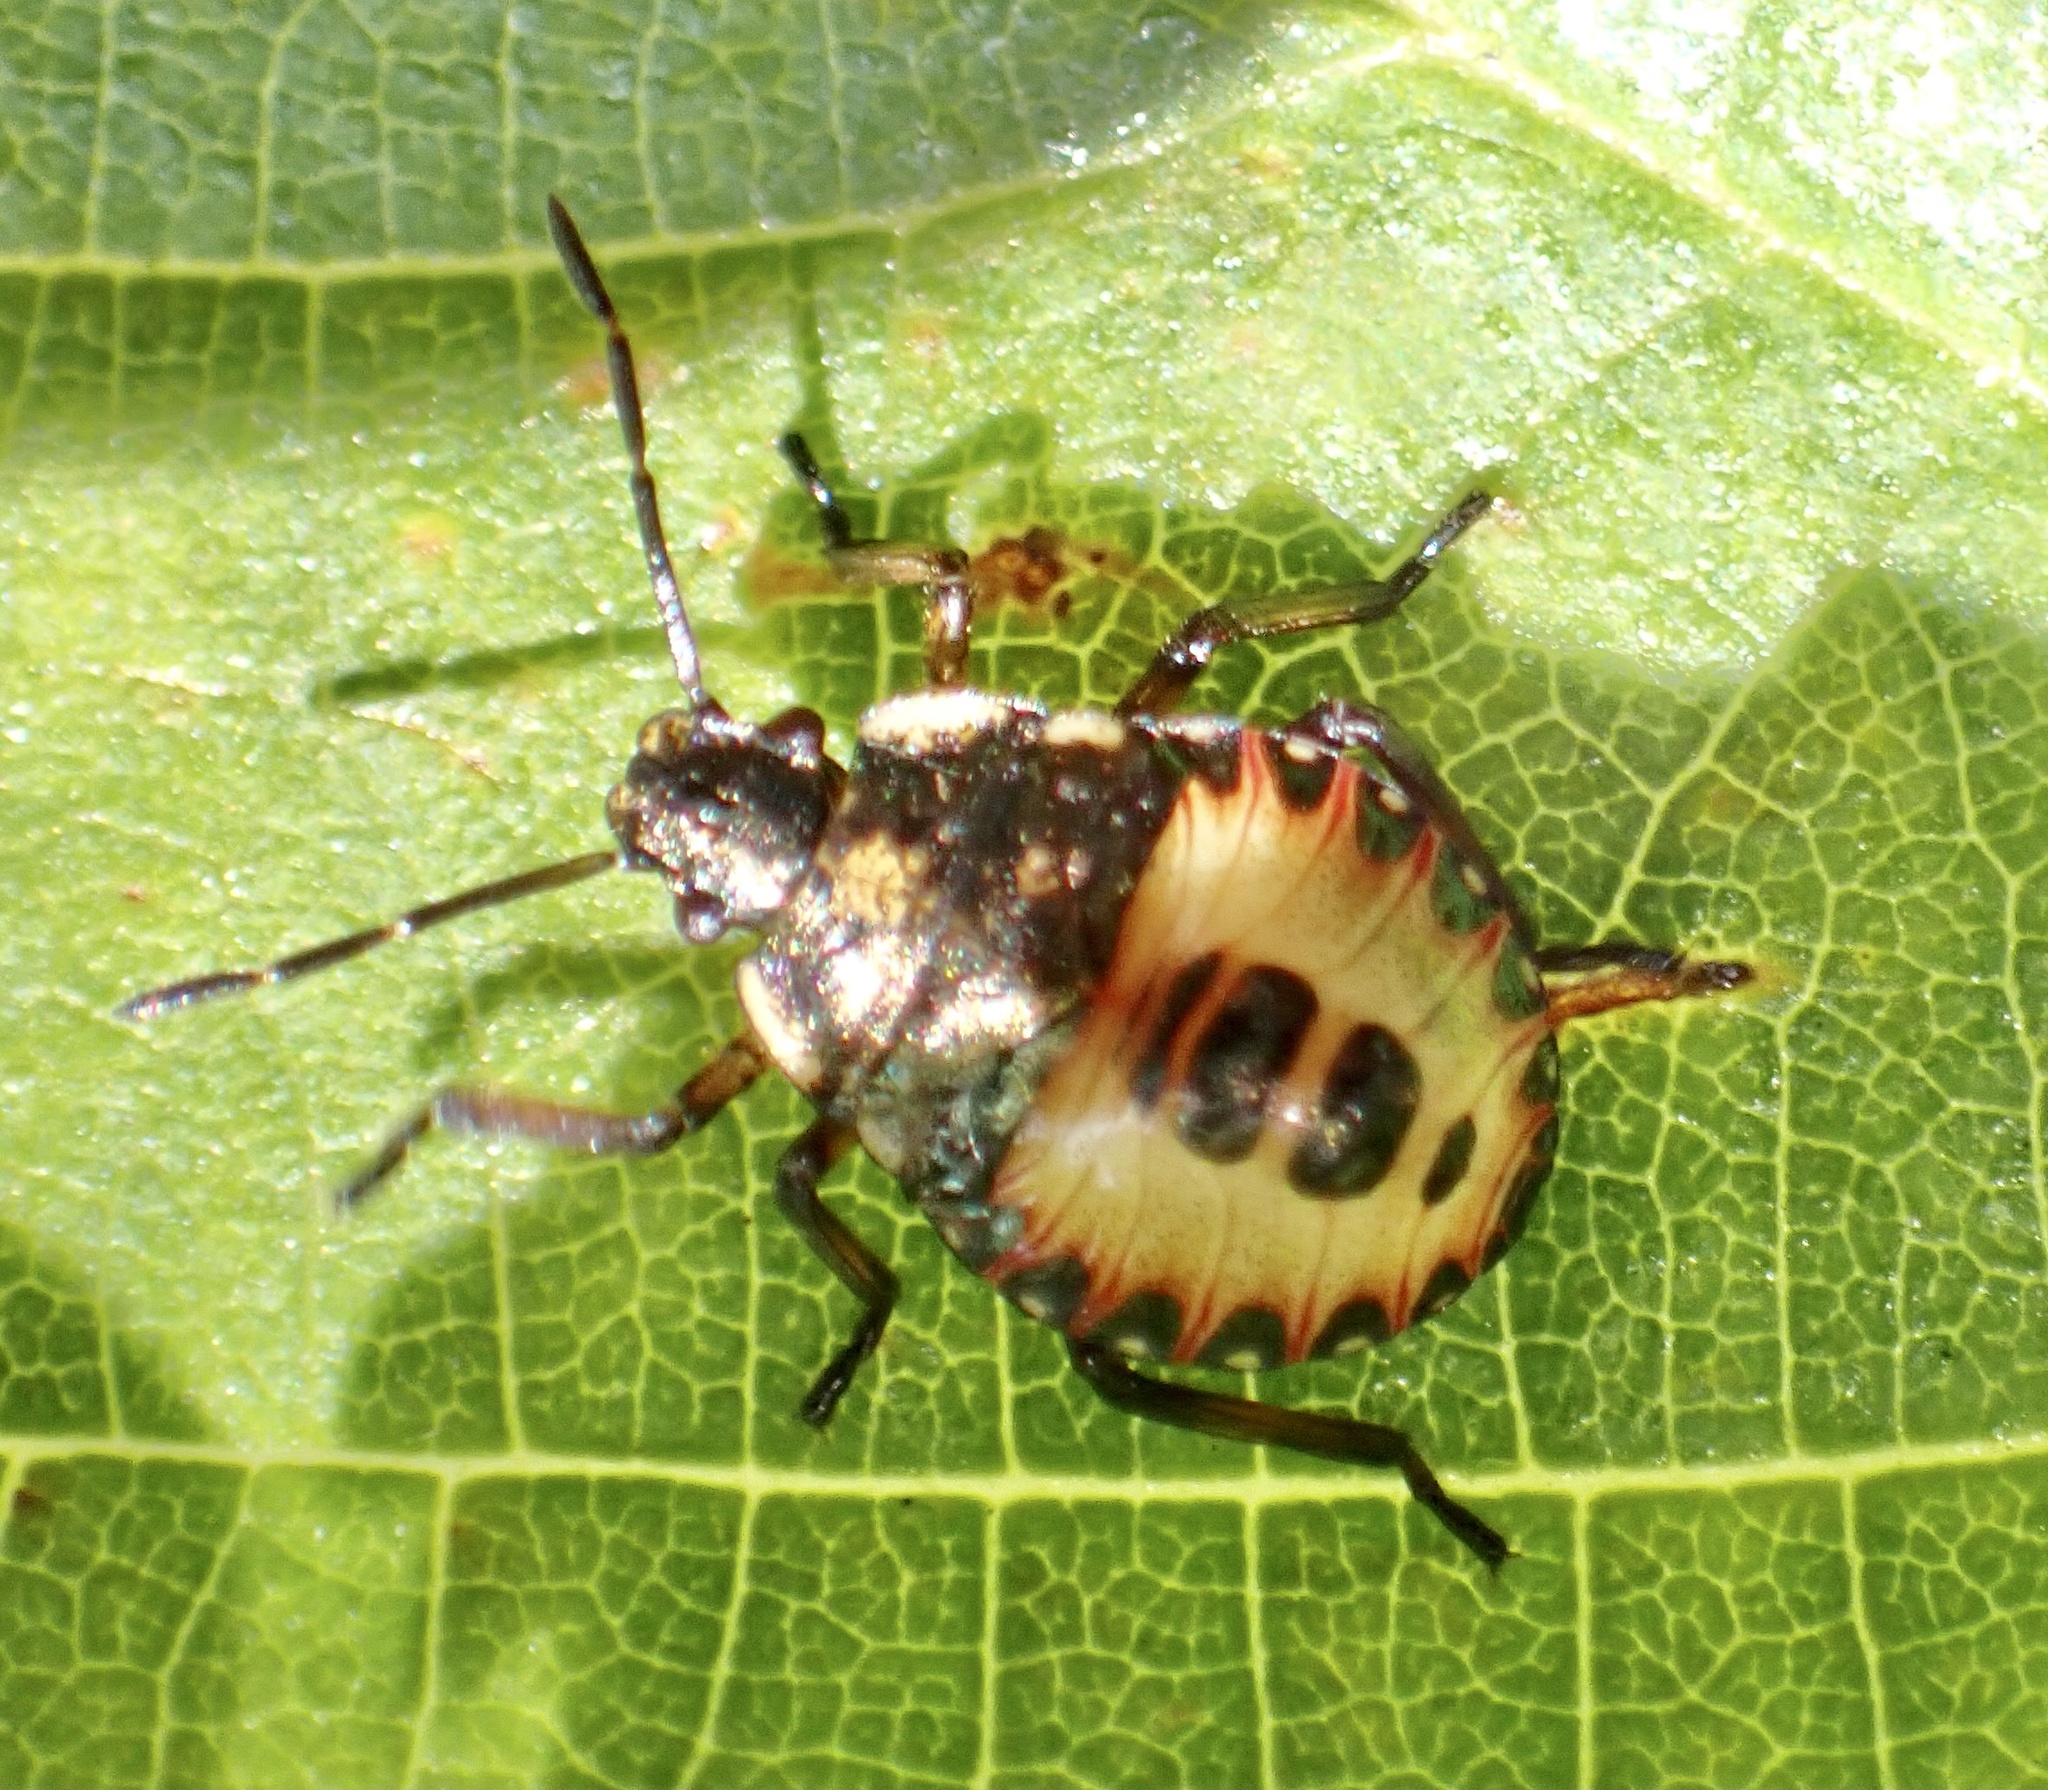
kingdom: Animalia
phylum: Arthropoda
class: Insecta
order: Hemiptera
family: Pentatomidae
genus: Arma
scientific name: Arma custos
